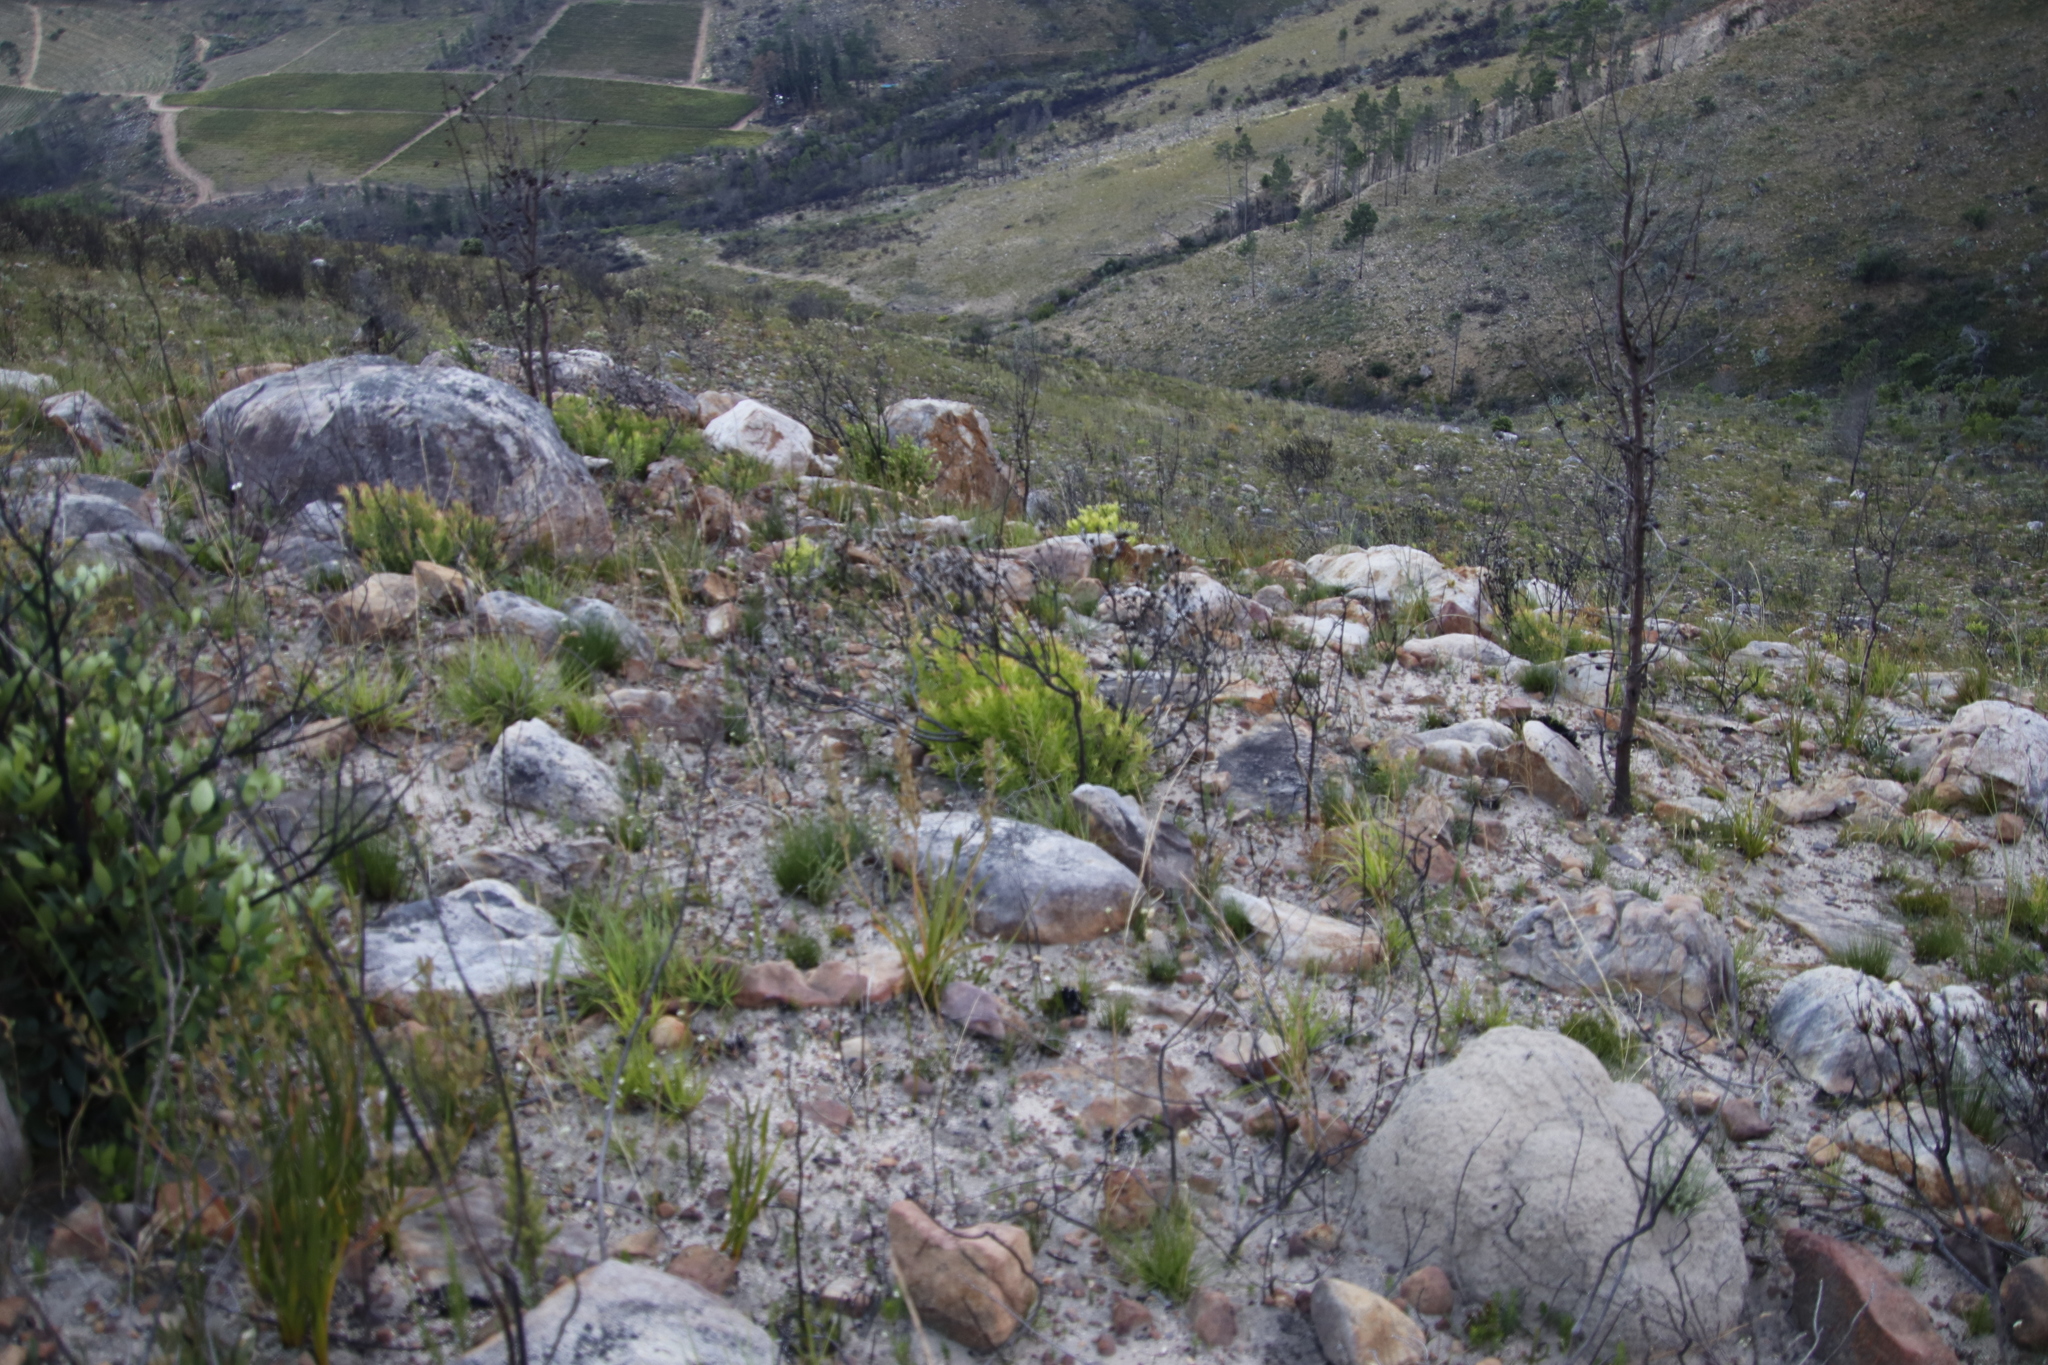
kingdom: Plantae
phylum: Tracheophyta
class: Magnoliopsida
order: Proteales
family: Proteaceae
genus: Leucadendron
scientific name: Leucadendron salignum
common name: Common sunshine conebush
